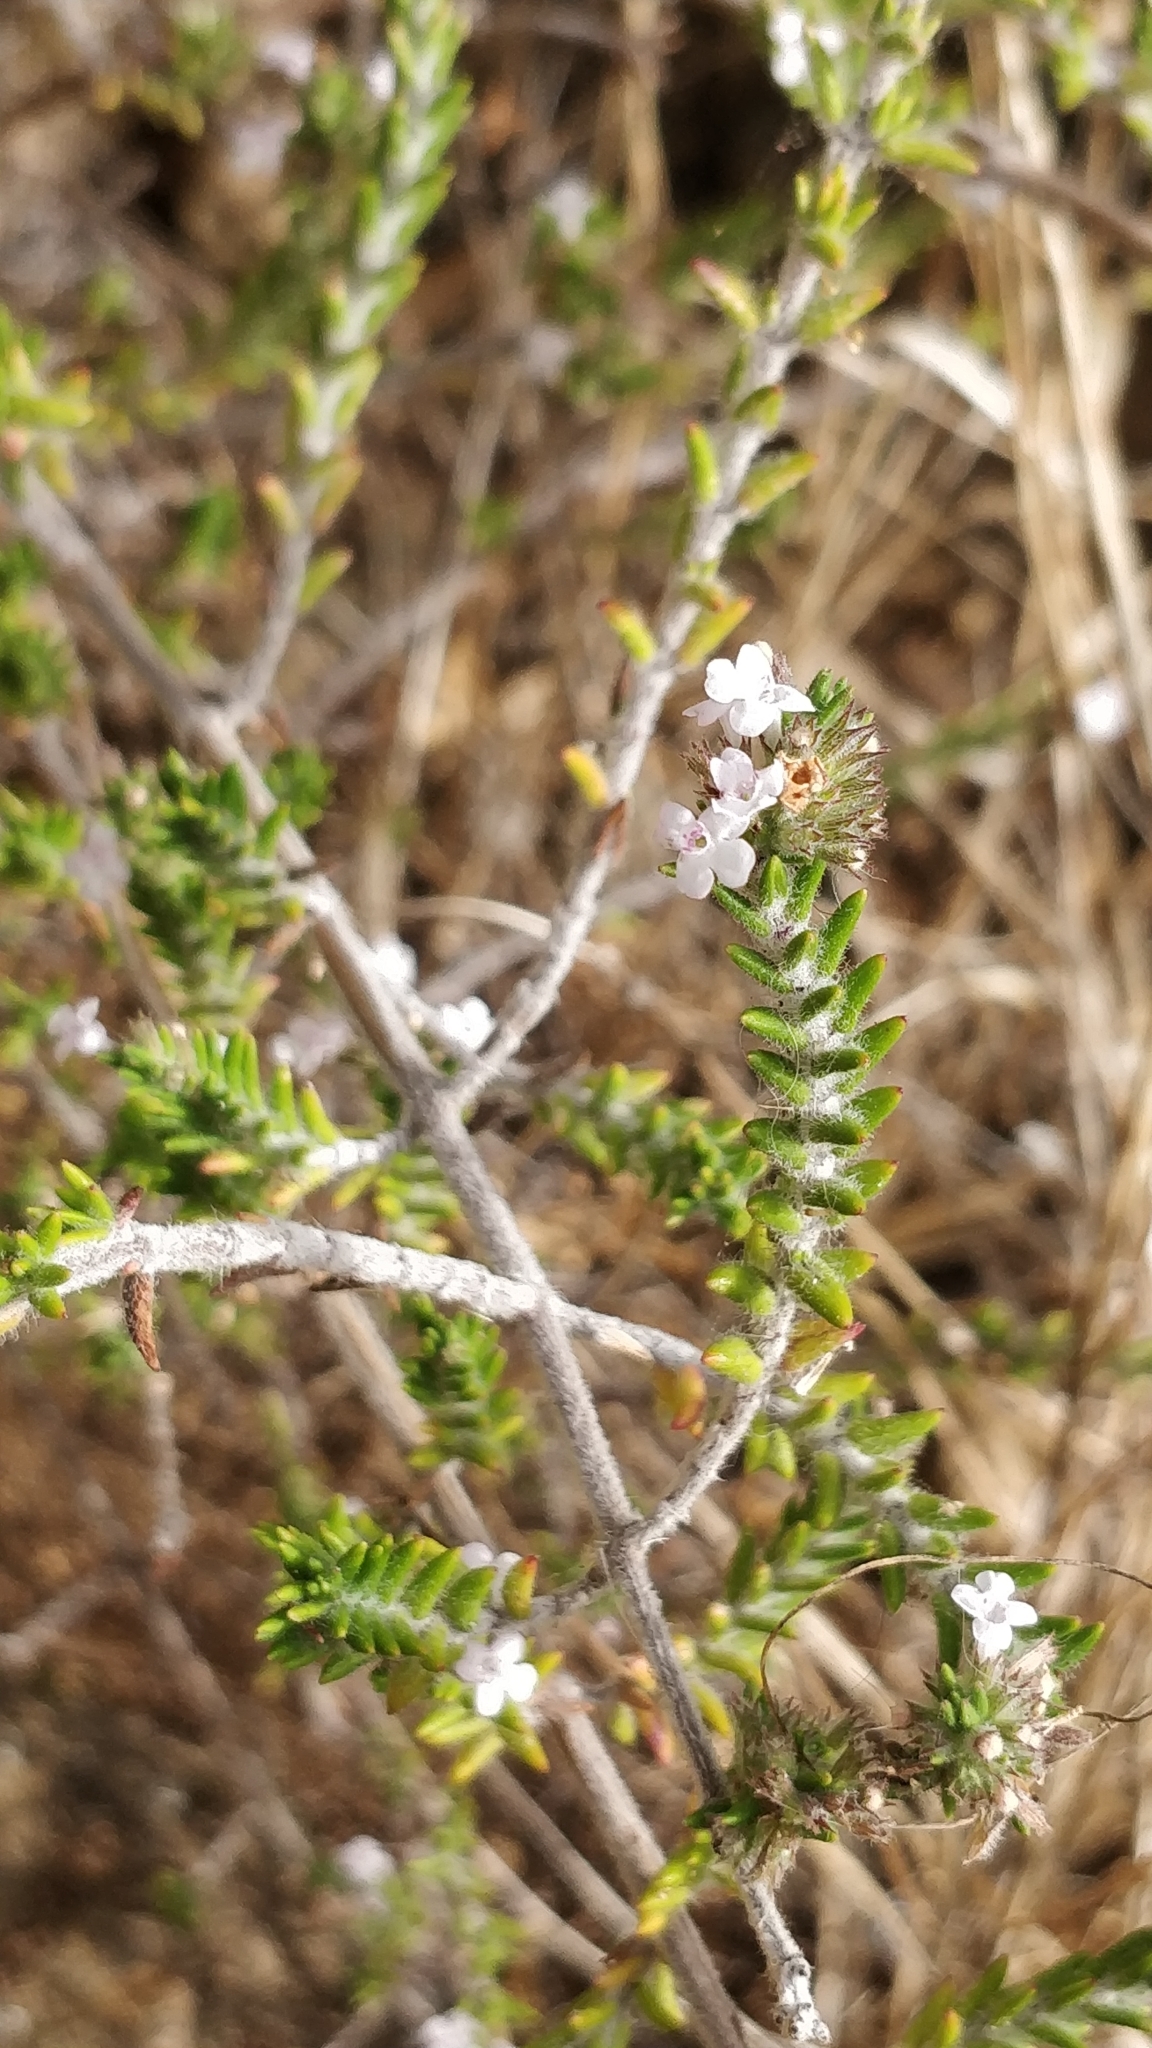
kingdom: Plantae
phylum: Tracheophyta
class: Magnoliopsida
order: Lamiales
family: Lamiaceae
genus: Micromeria
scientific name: Micromeria ericifolia
